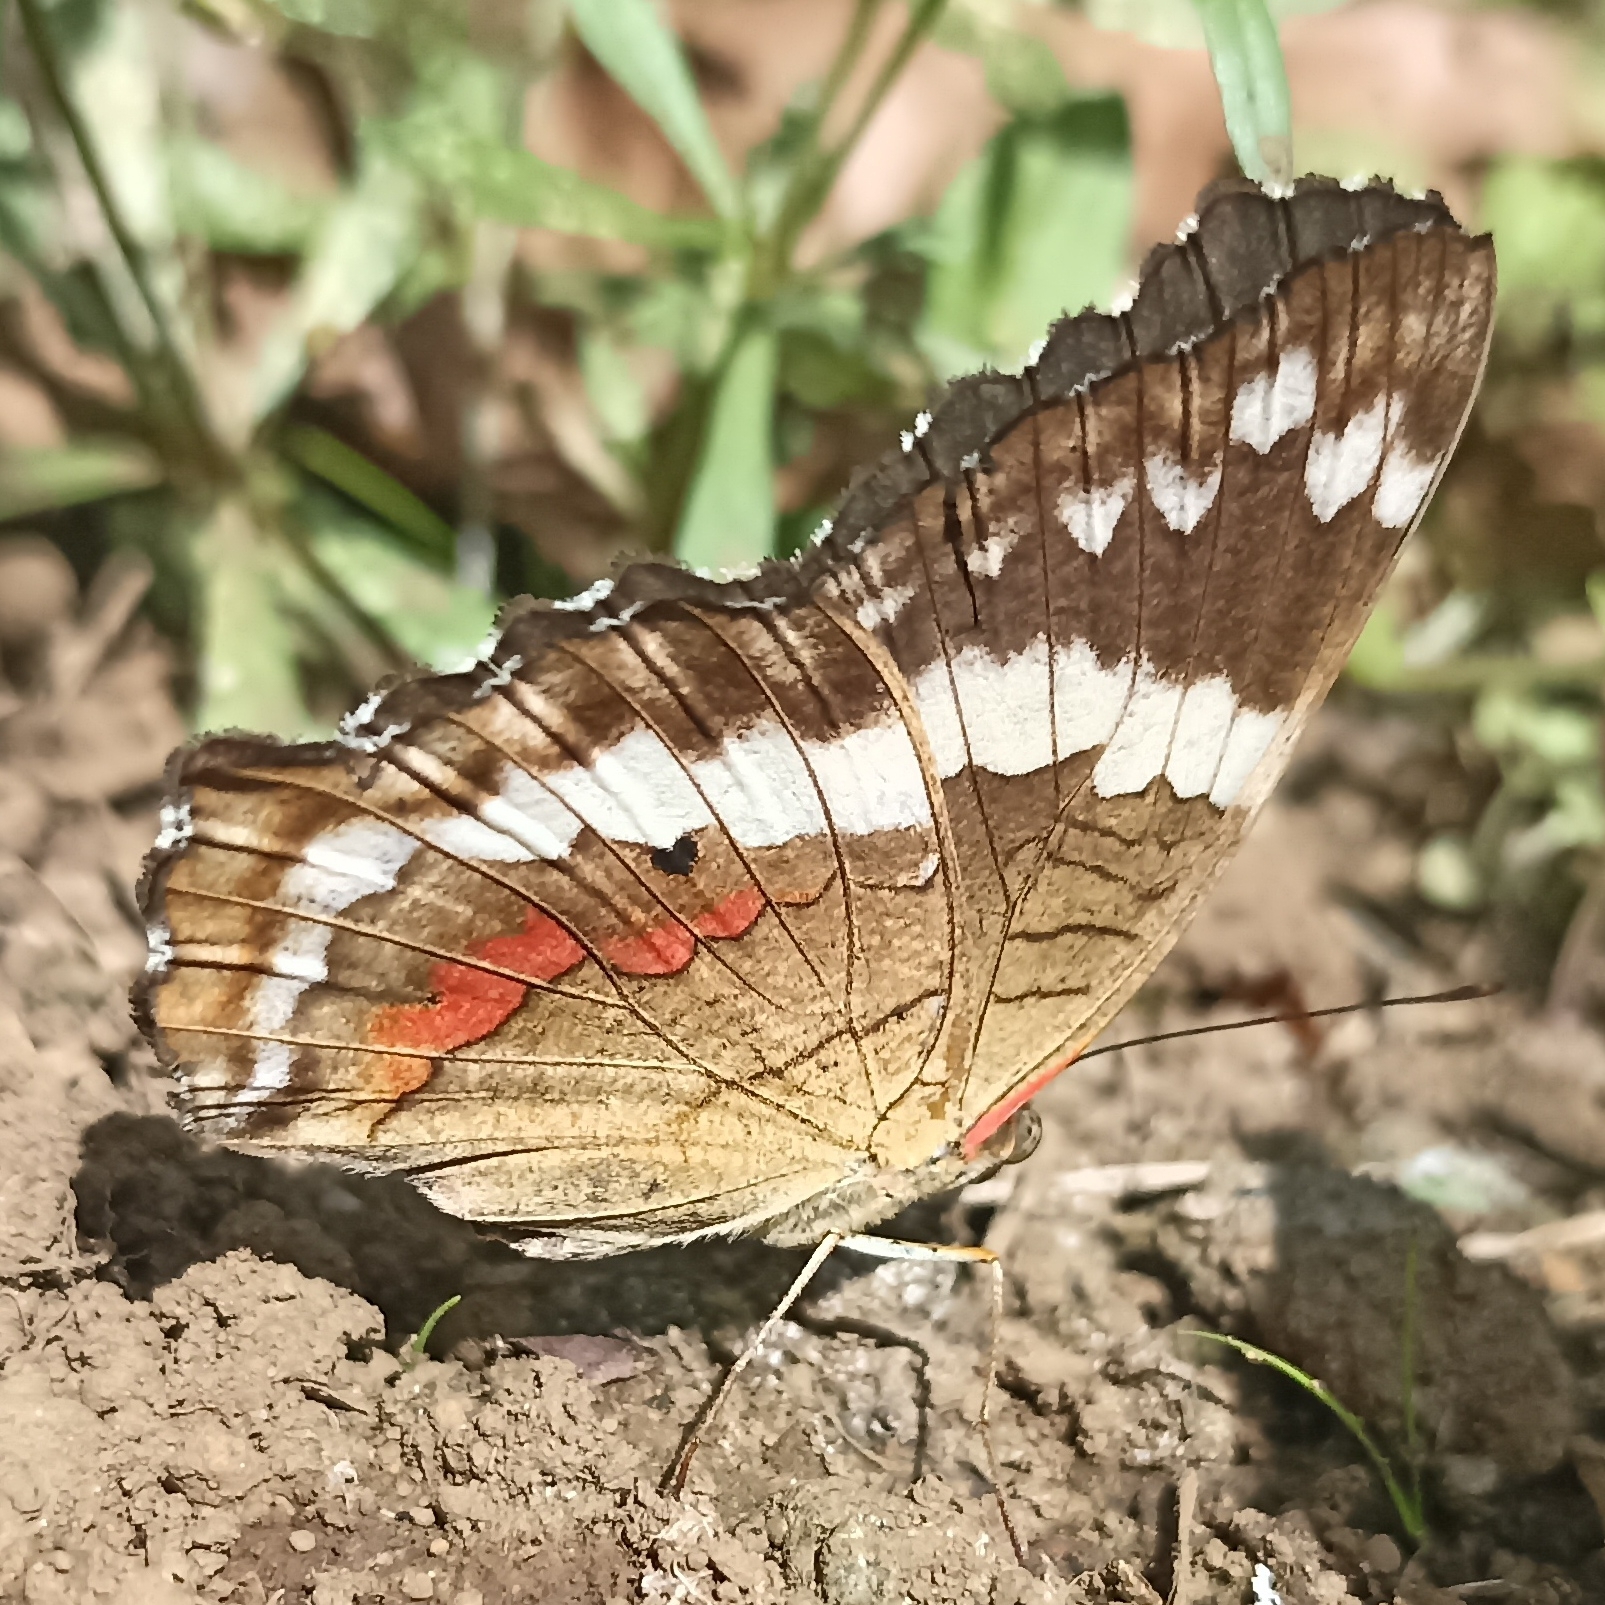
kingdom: Animalia
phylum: Arthropoda
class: Insecta
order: Lepidoptera
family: Nymphalidae
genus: Anartia
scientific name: Anartia fatima
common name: Banded peacock
